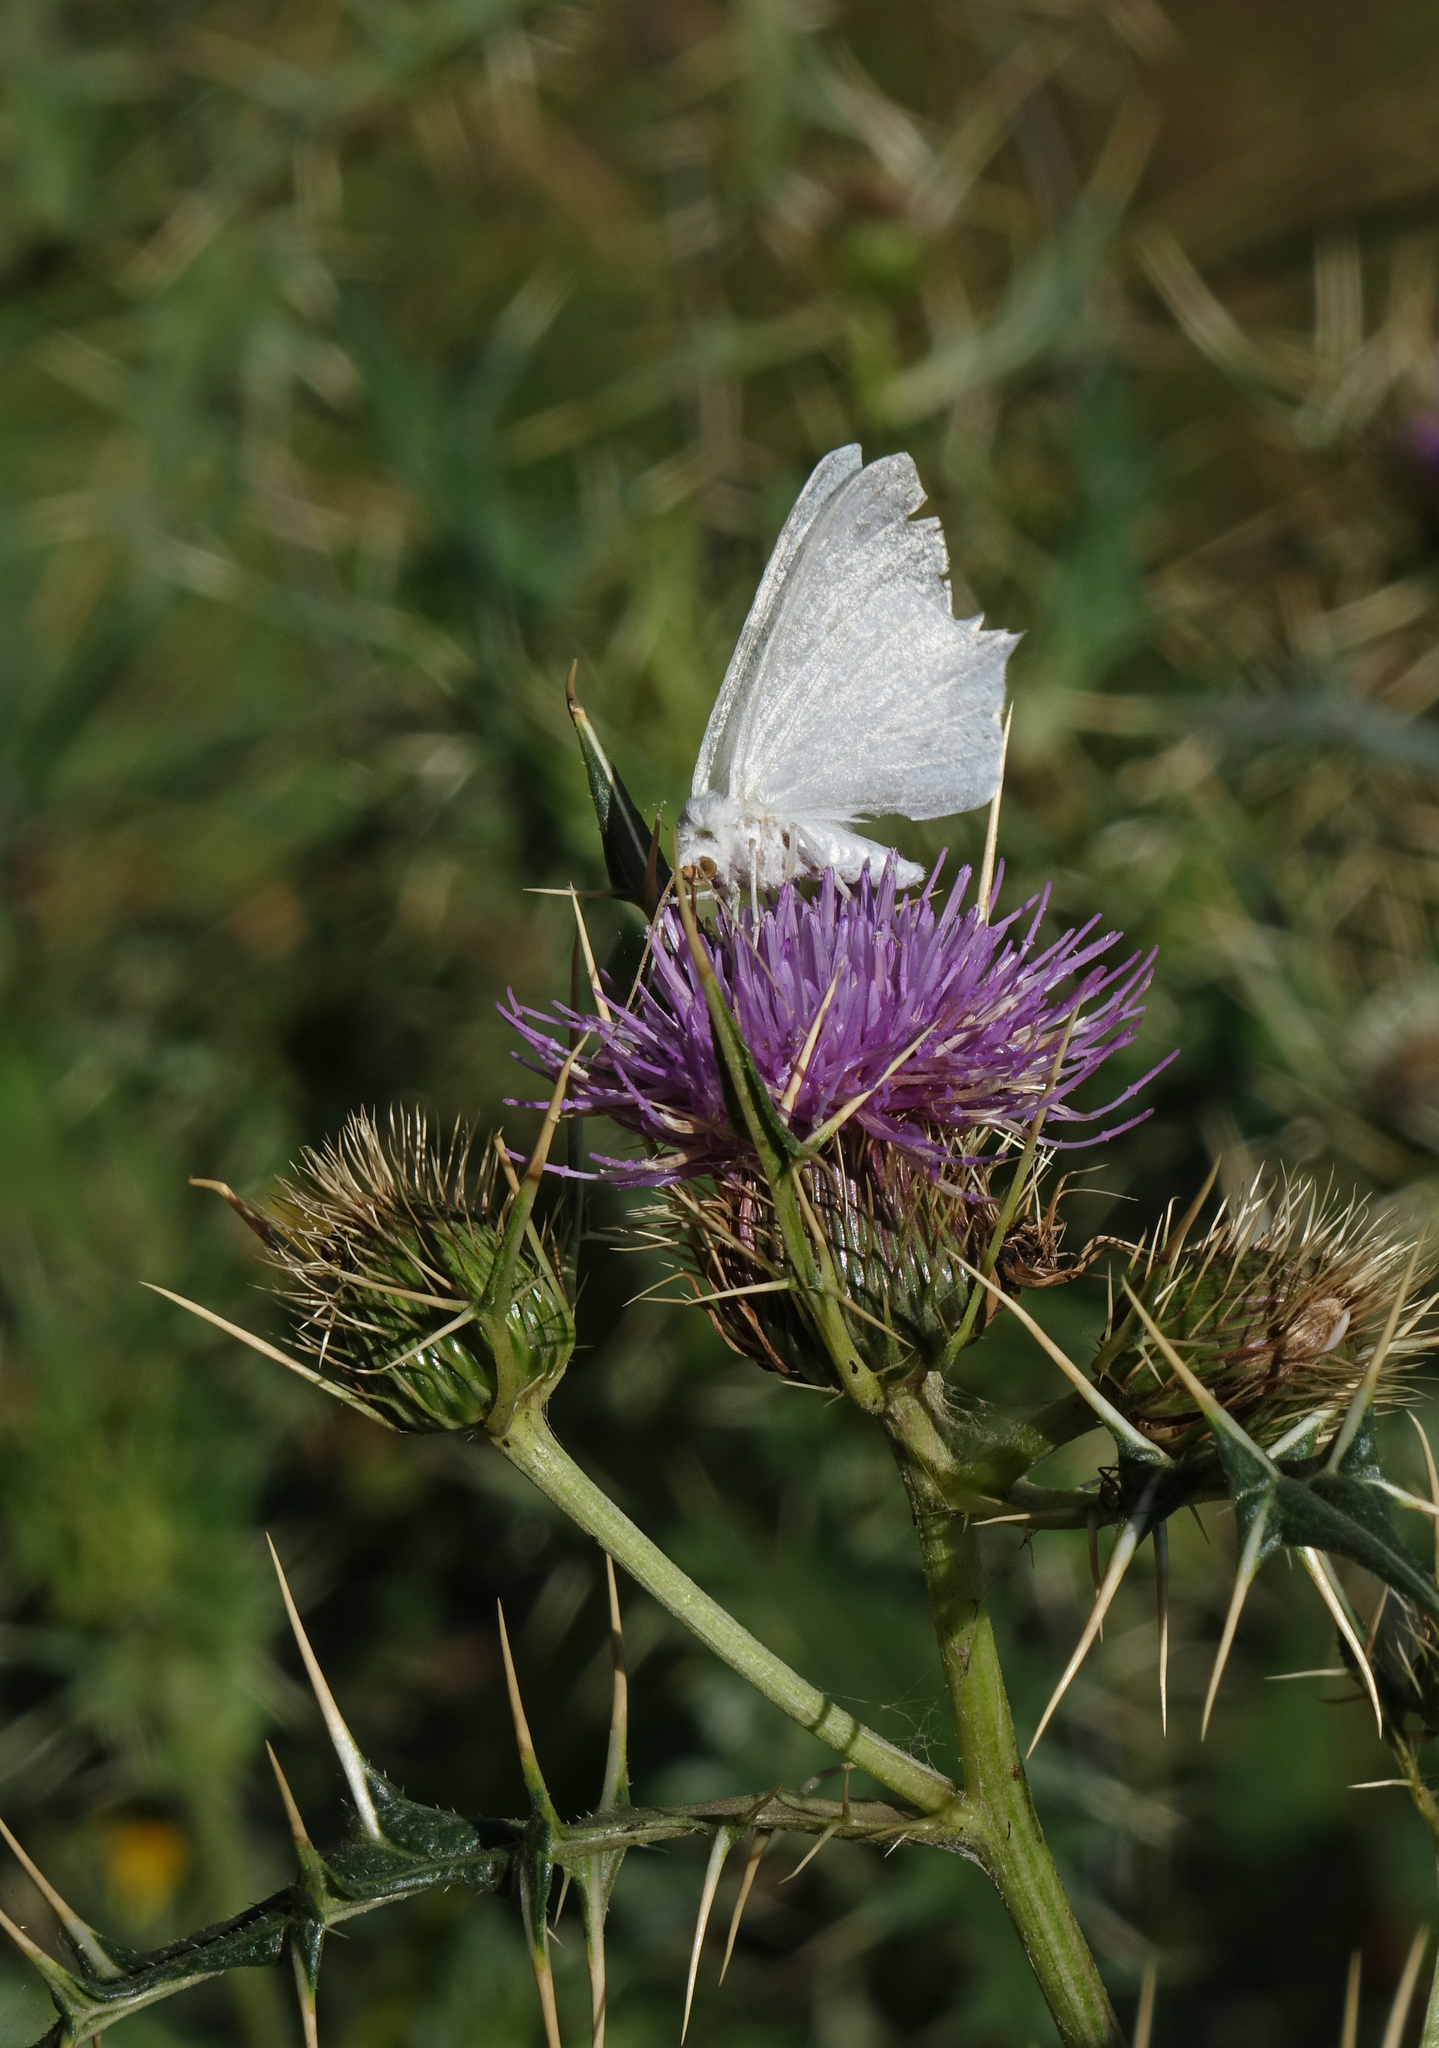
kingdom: Plantae
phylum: Tracheophyta
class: Magnoliopsida
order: Asterales
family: Asteraceae
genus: Onopordum
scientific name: Onopordum acanthium
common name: Scotch thistle
